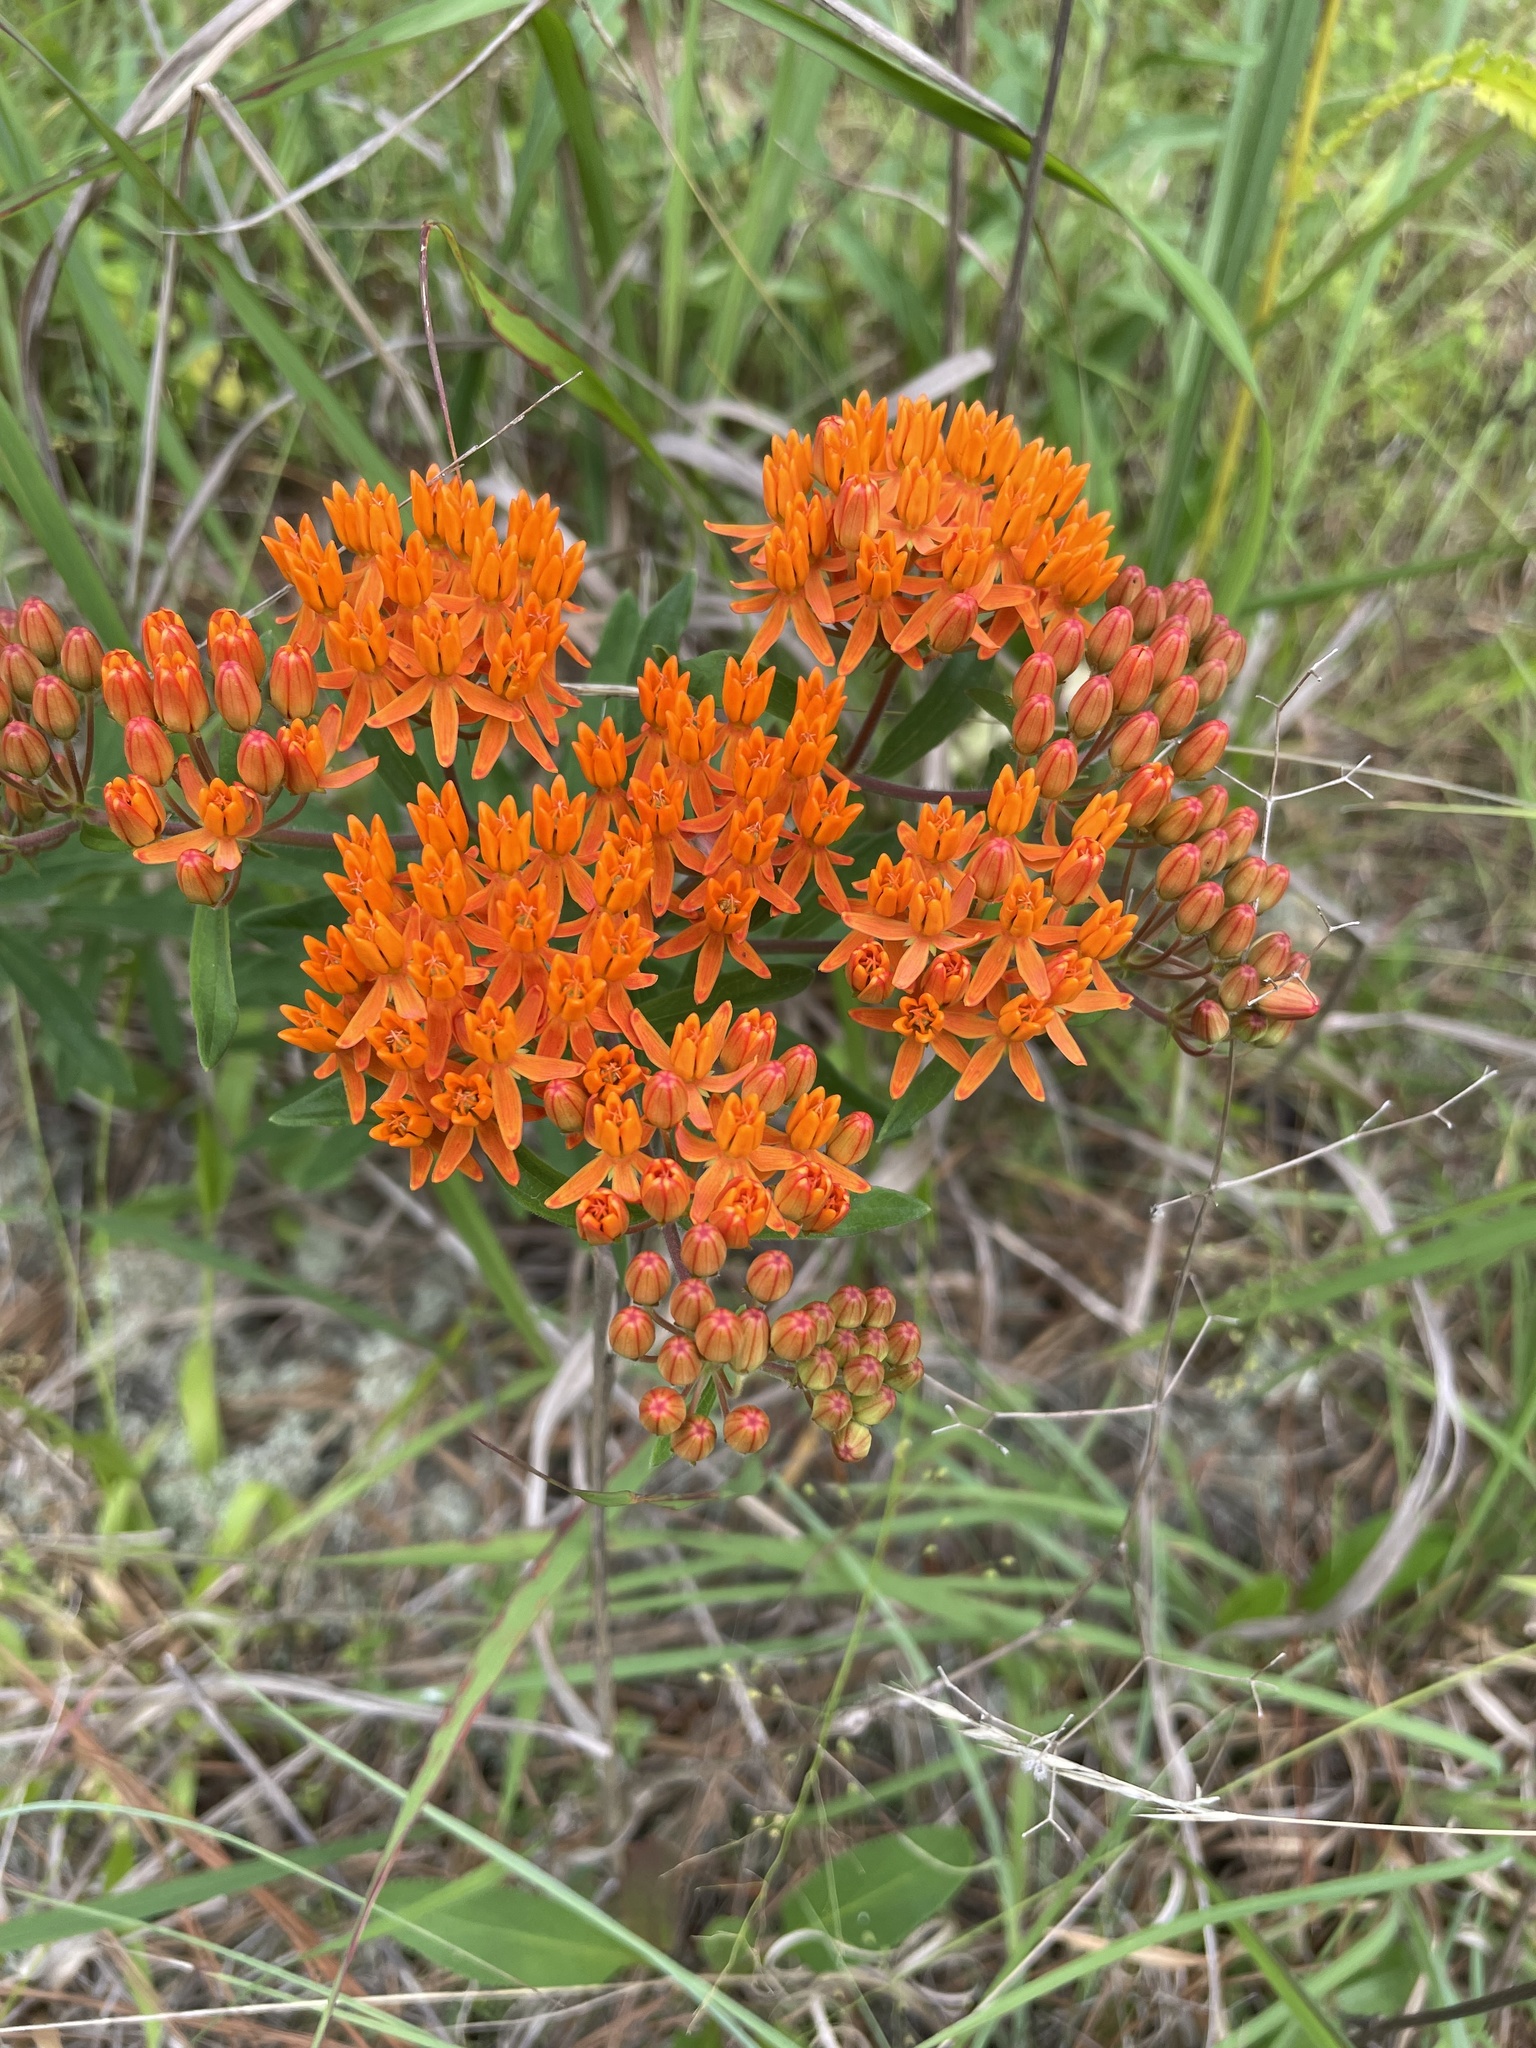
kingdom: Plantae
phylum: Tracheophyta
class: Magnoliopsida
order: Gentianales
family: Apocynaceae
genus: Asclepias
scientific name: Asclepias tuberosa
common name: Butterfly milkweed
